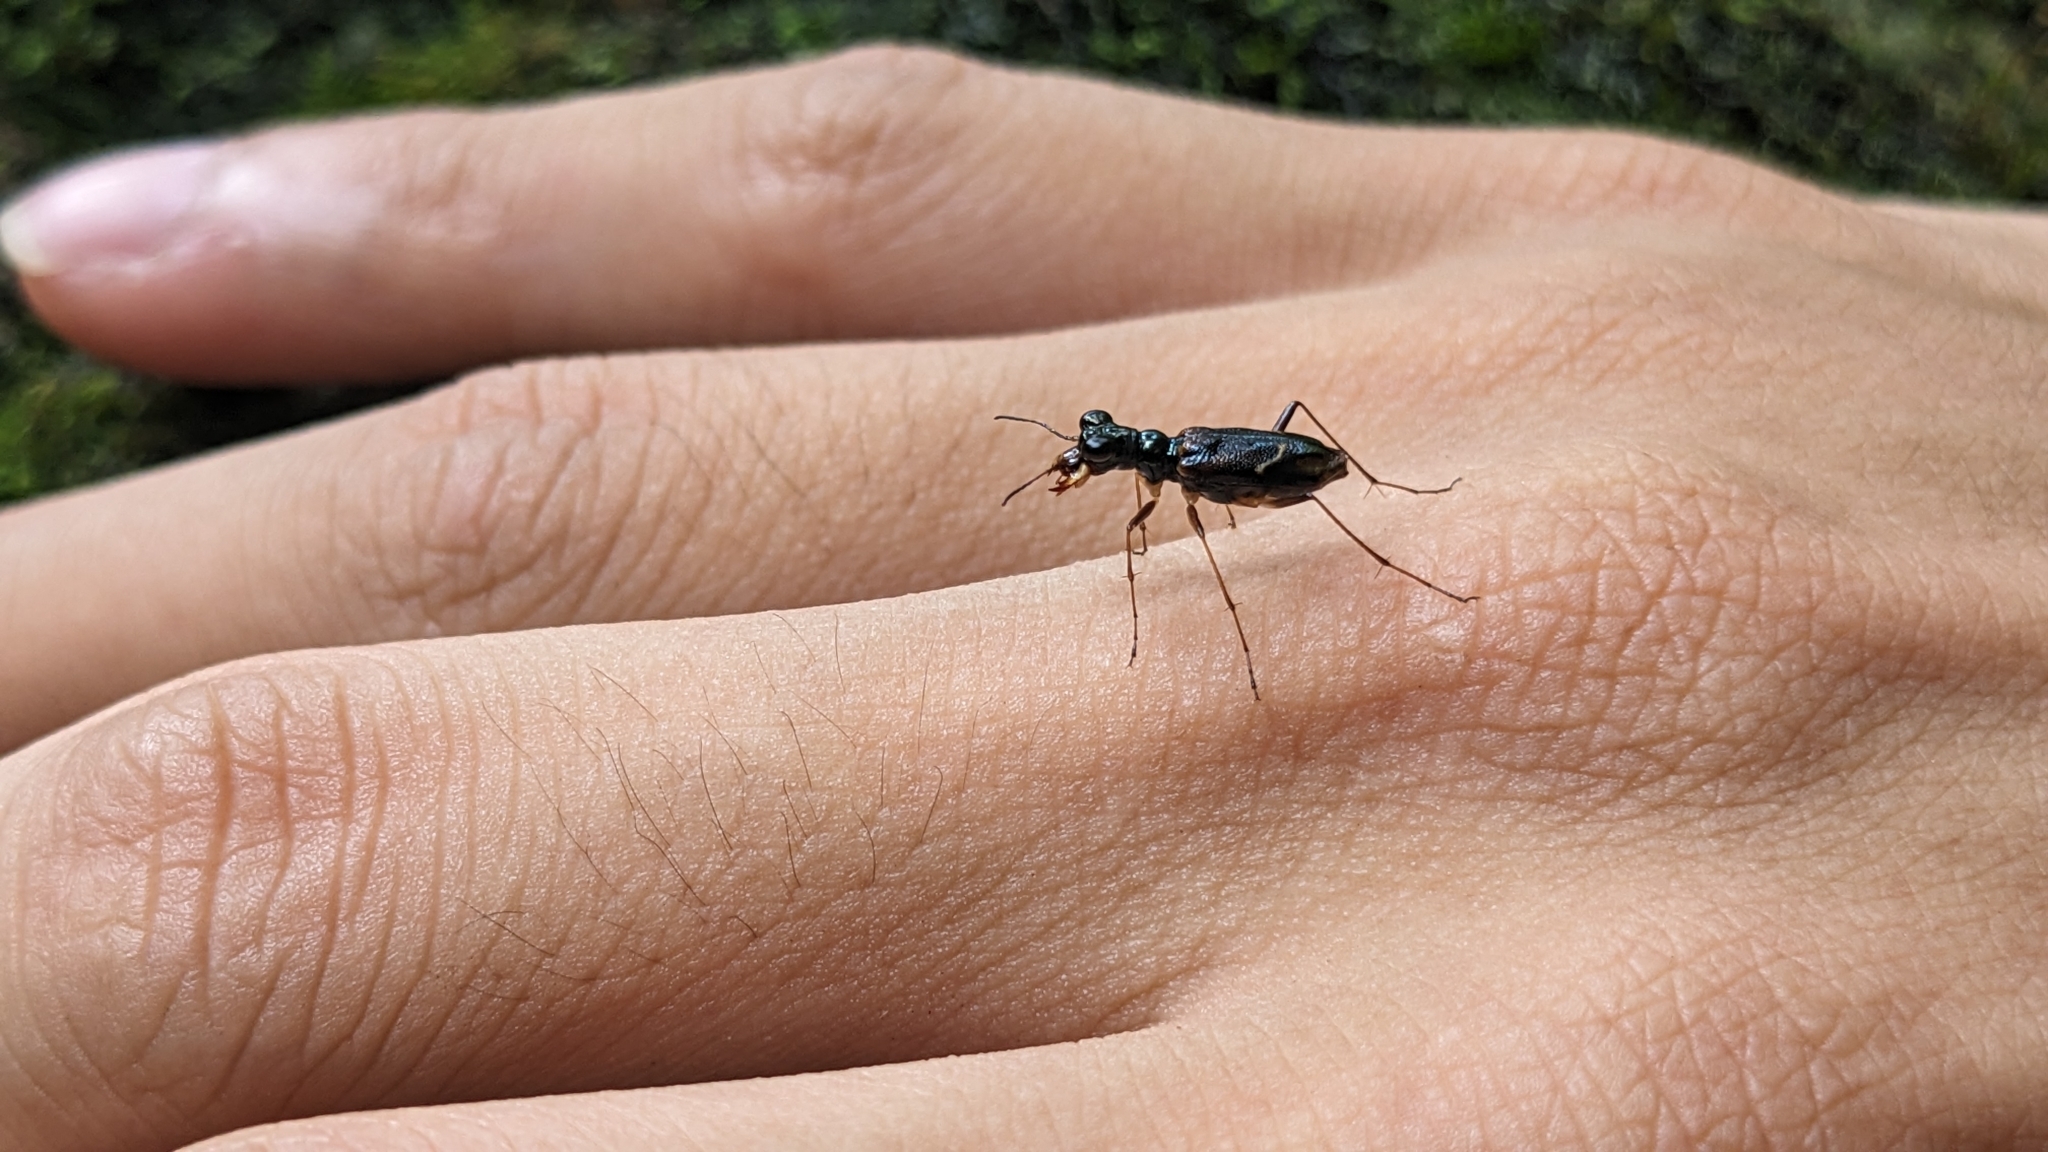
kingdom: Animalia
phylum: Arthropoda
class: Insecta
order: Coleoptera
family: Carabidae
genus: Therates
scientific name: Therates alboobliquatus
